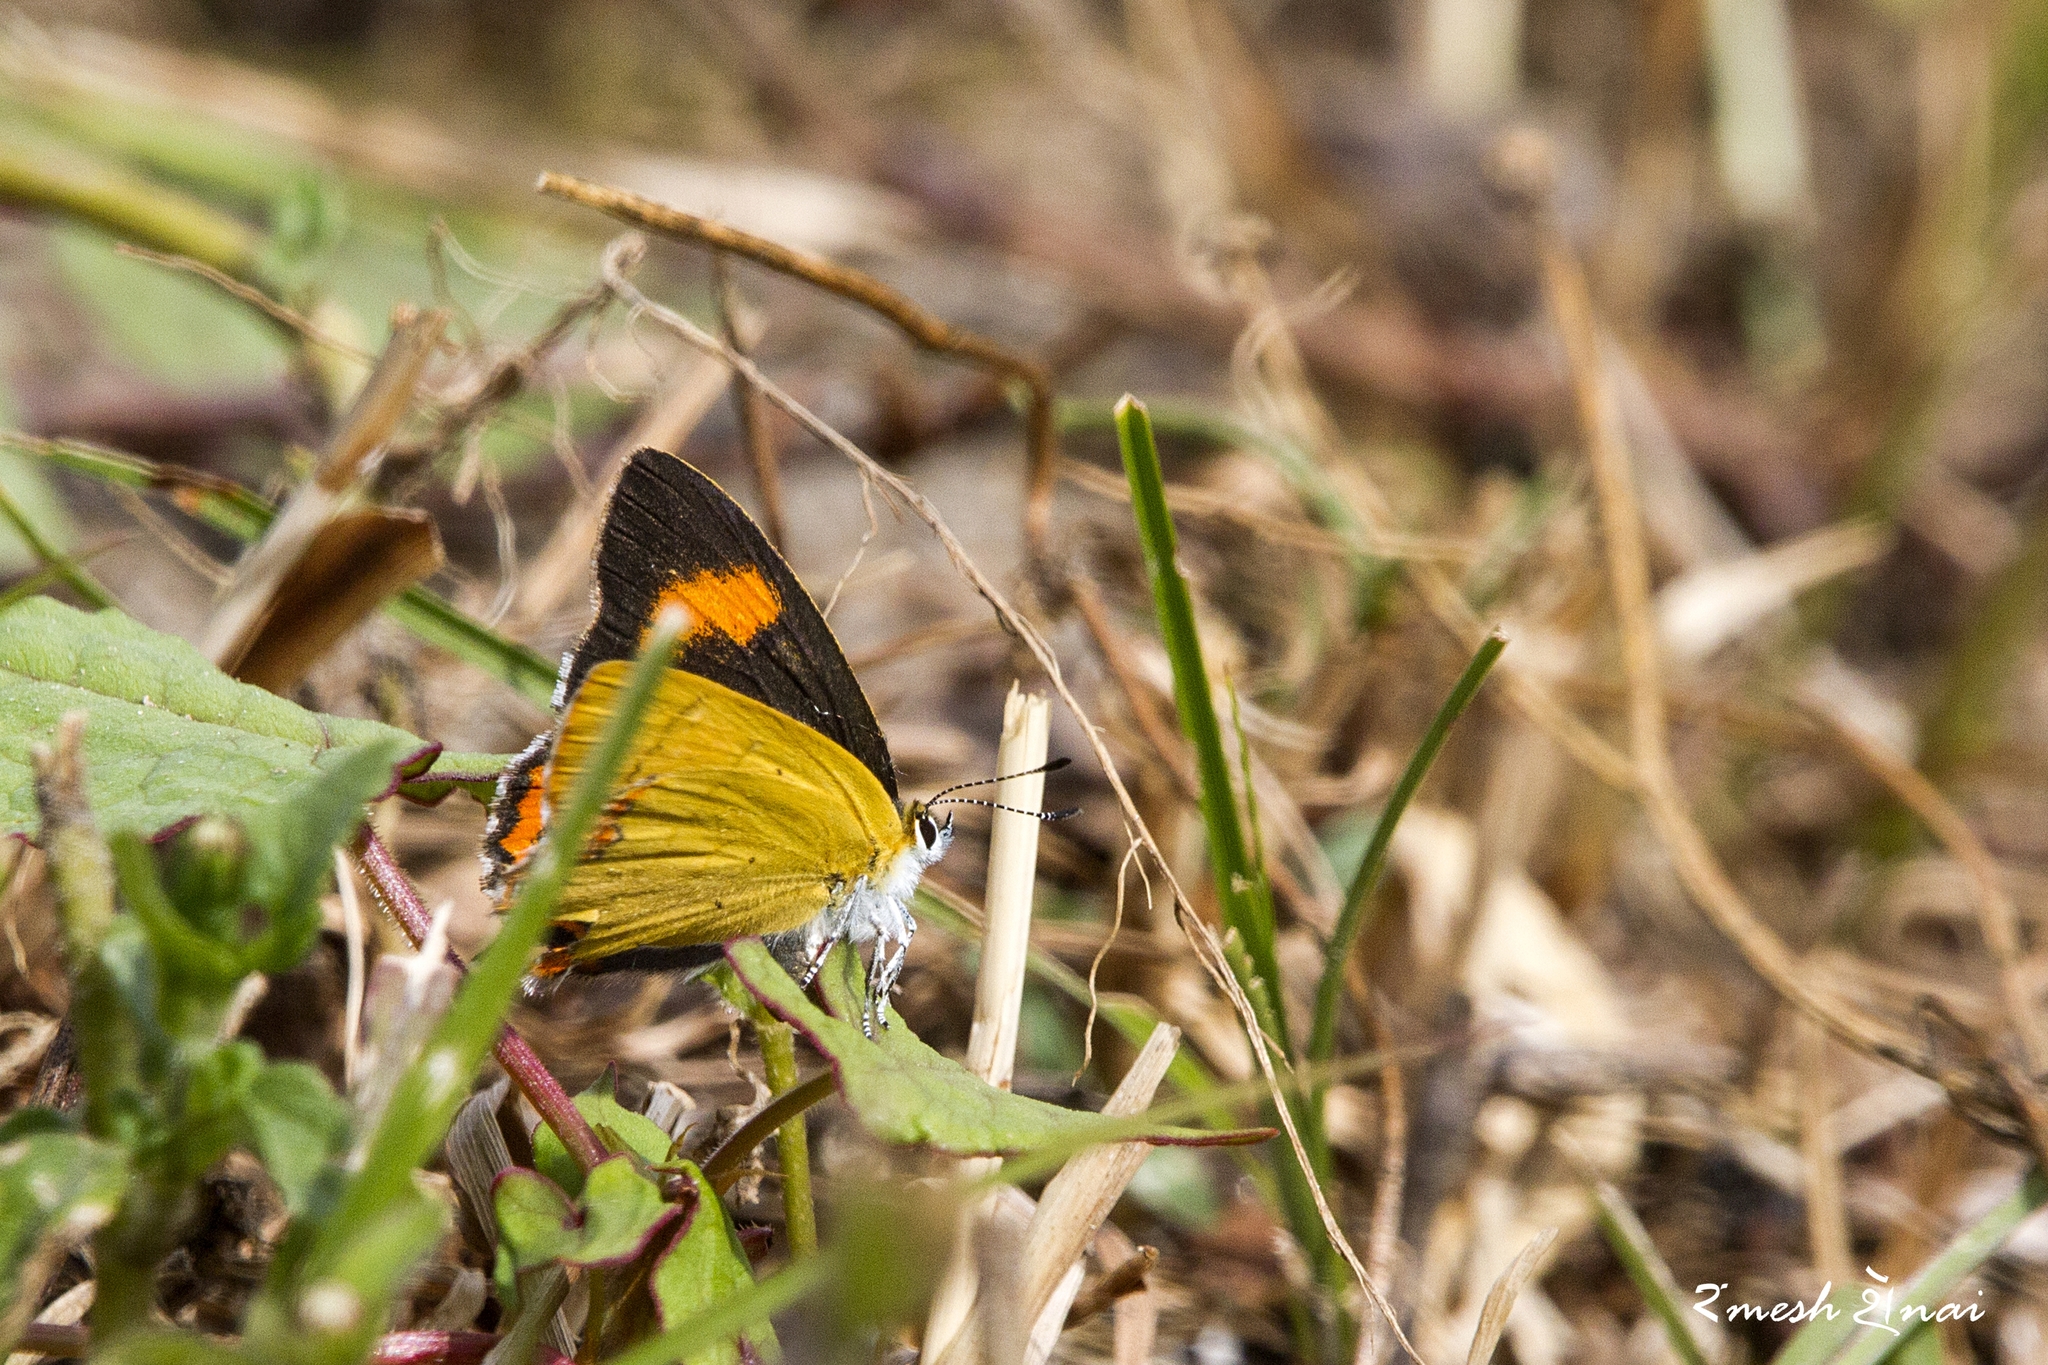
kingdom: Animalia
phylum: Arthropoda
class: Insecta
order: Lepidoptera
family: Lycaenidae
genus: Heliophorus
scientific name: Heliophorus
